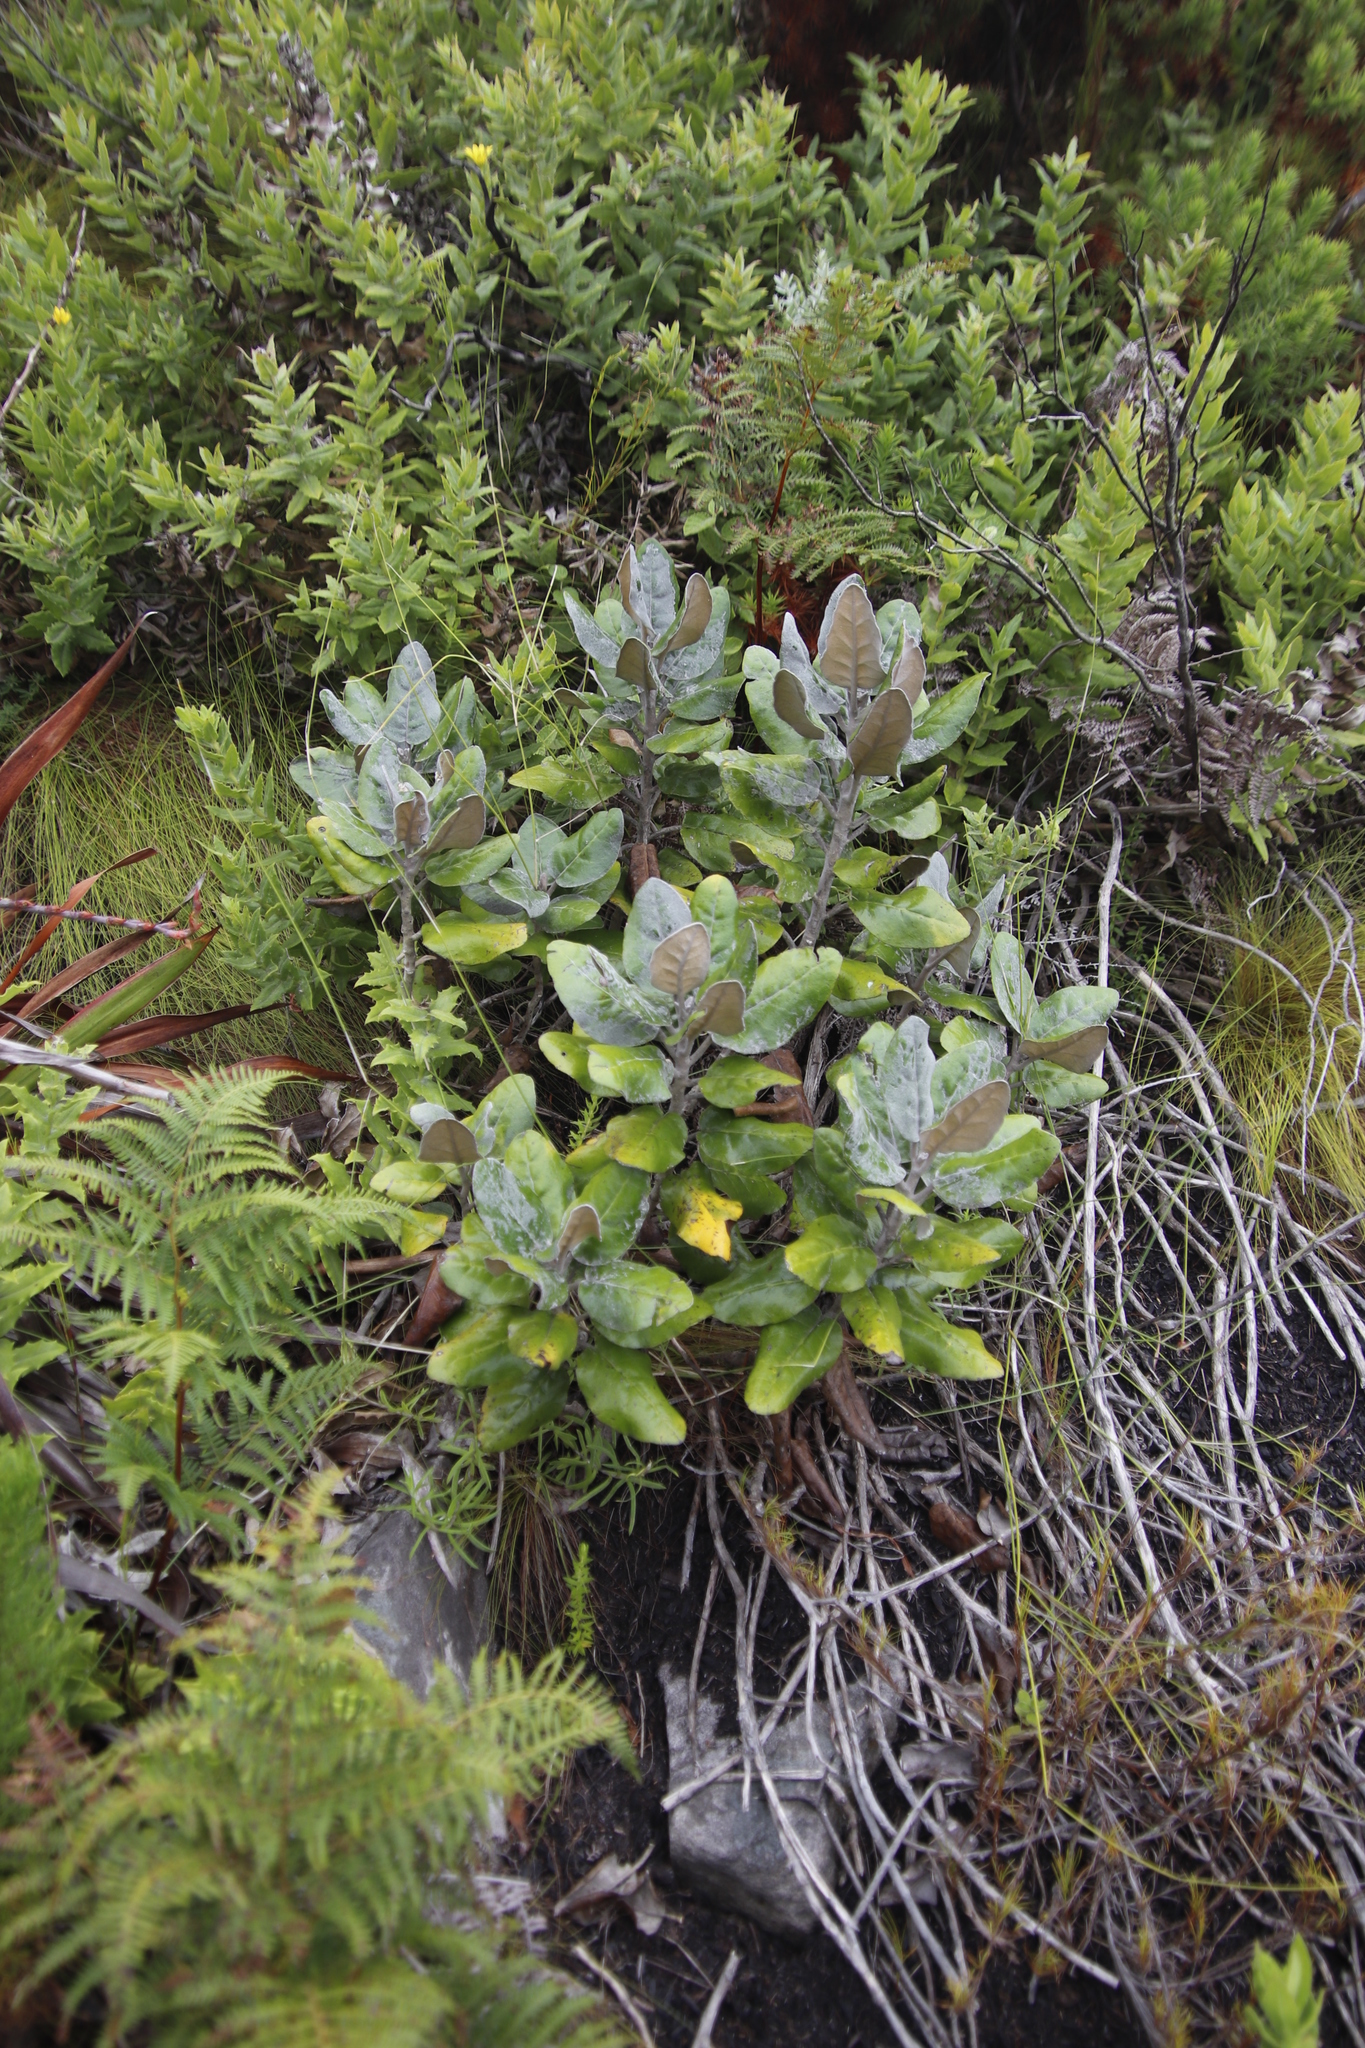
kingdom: Plantae
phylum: Tracheophyta
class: Magnoliopsida
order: Asterales
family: Asteraceae
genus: Capelio
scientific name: Capelio tabularis
